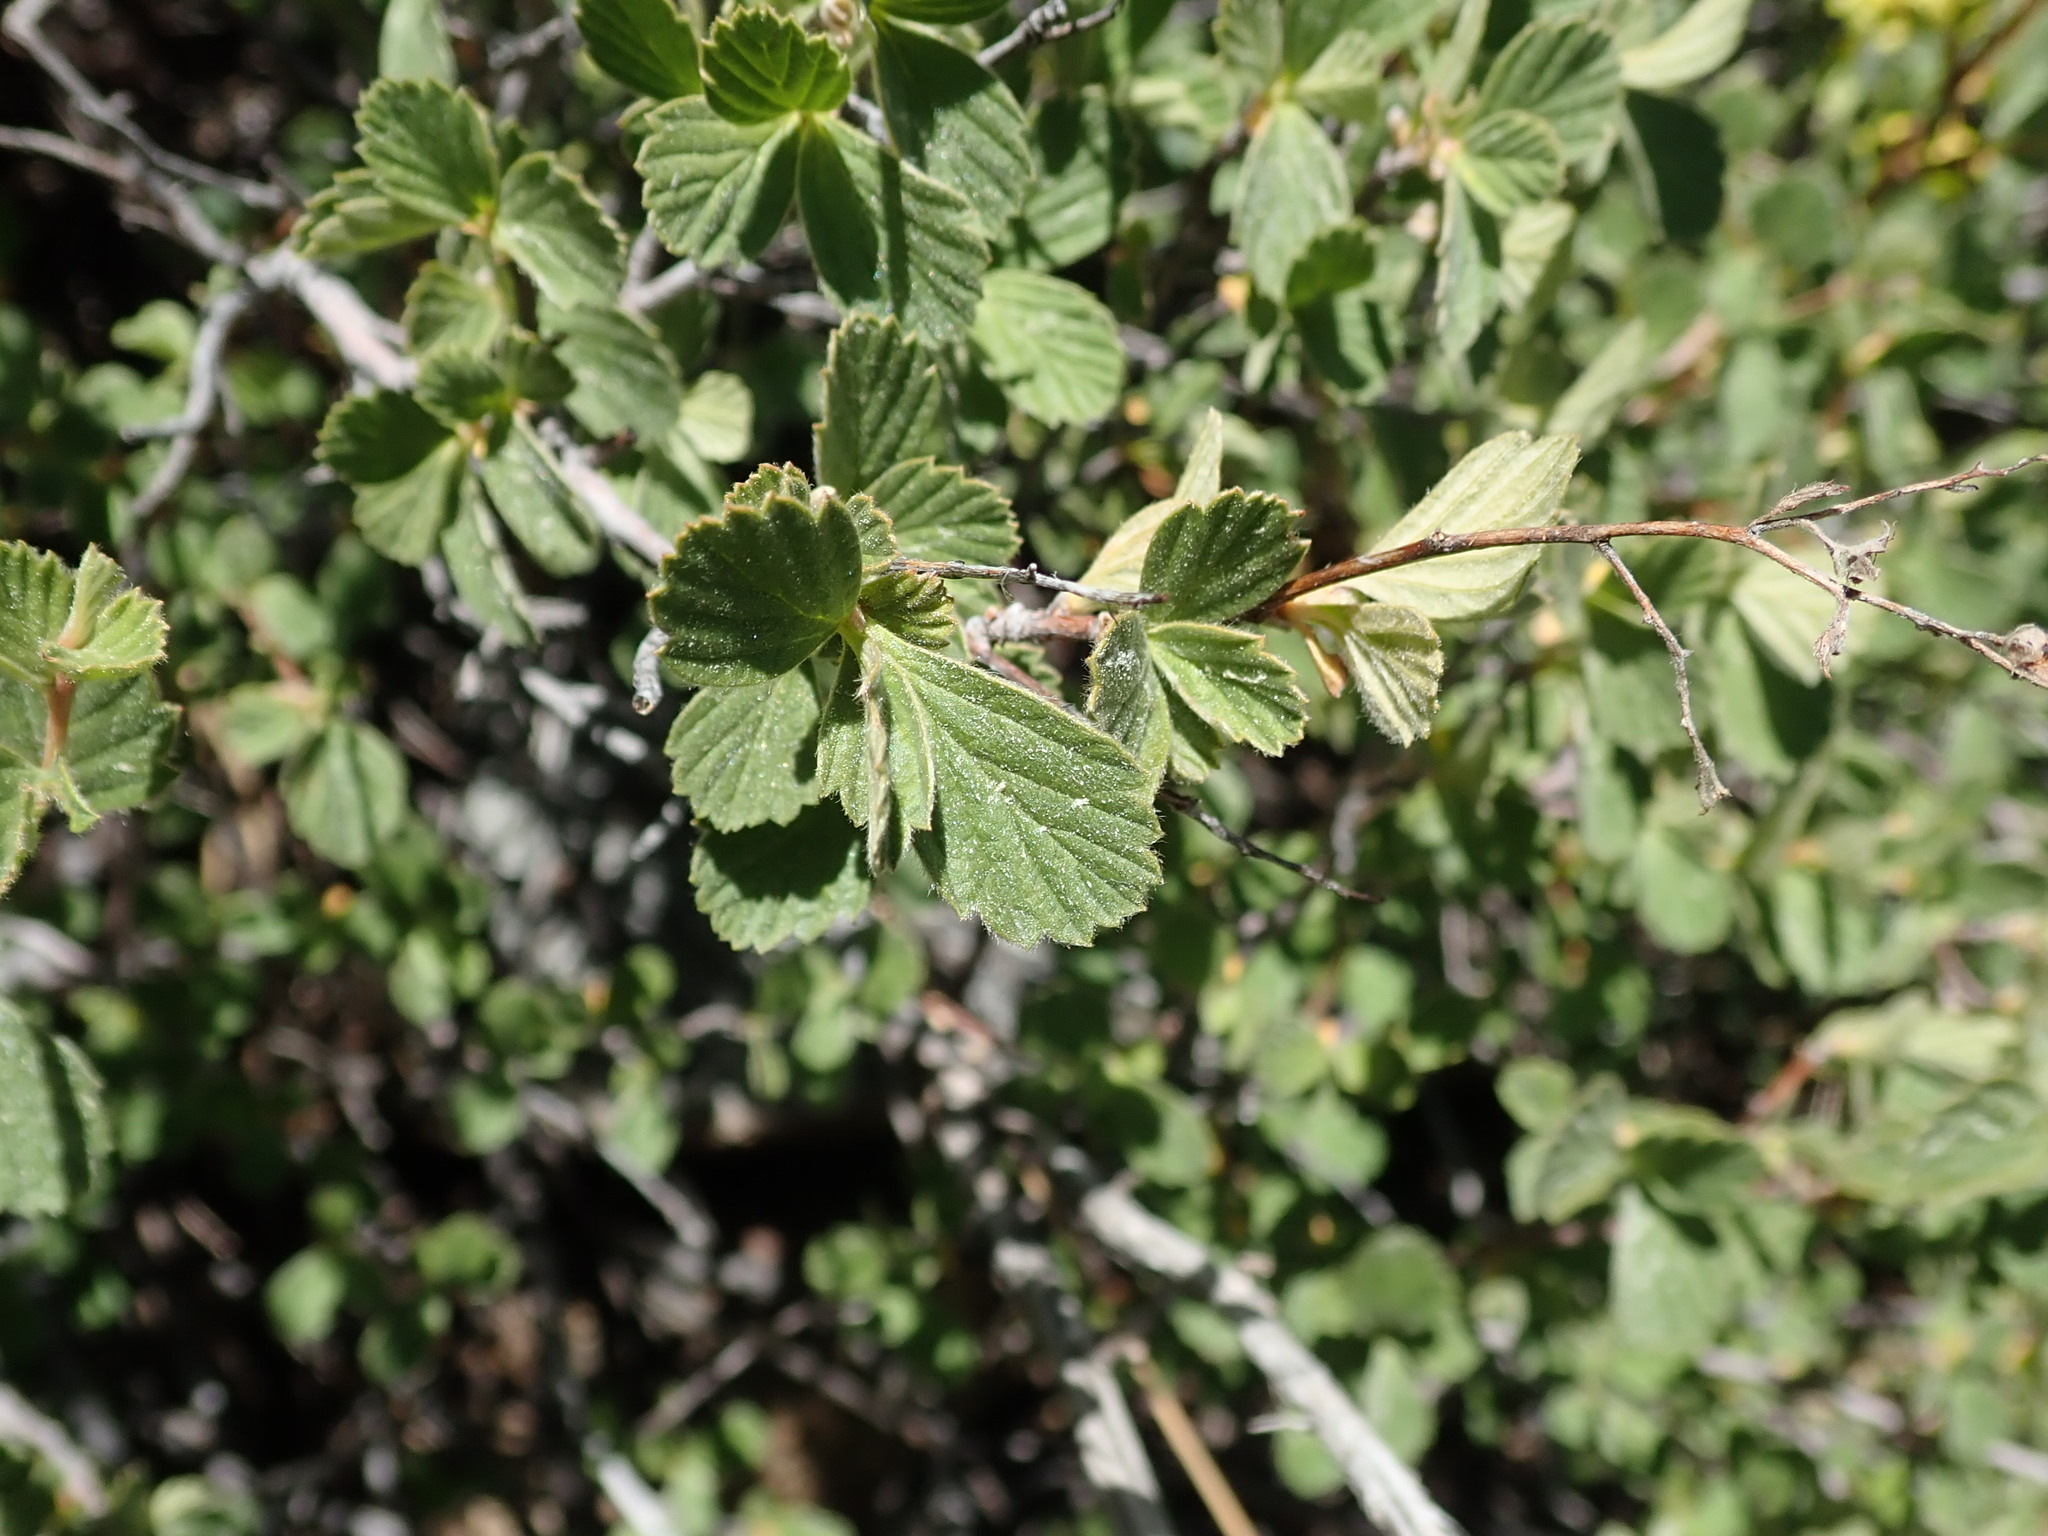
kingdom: Plantae
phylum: Tracheophyta
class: Magnoliopsida
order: Rosales
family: Rosaceae
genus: Holodiscus
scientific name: Holodiscus discolor
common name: Oceanspray
